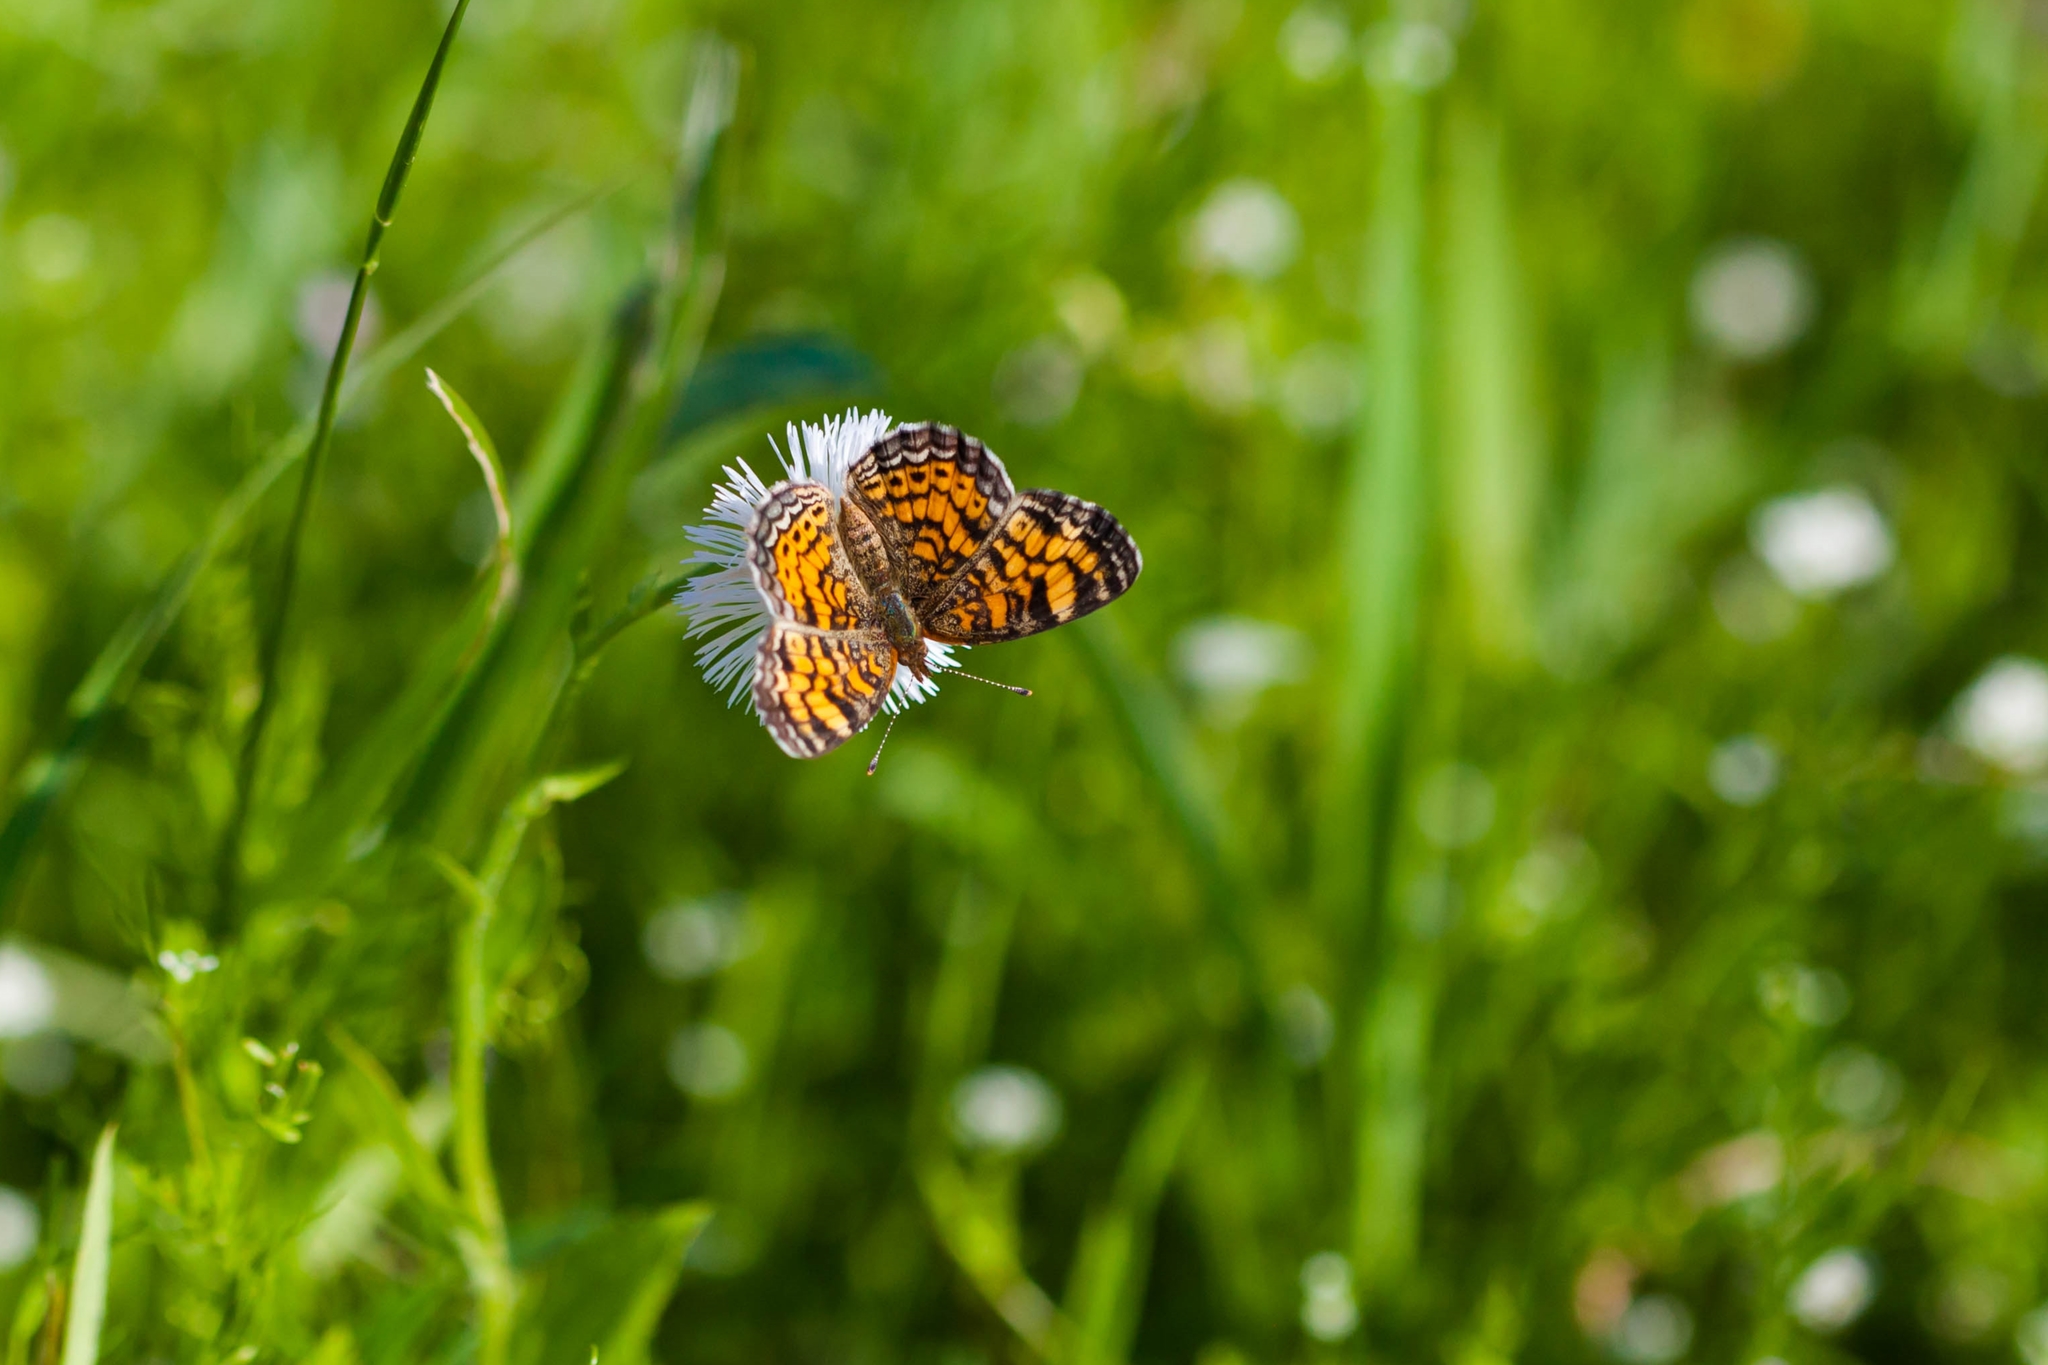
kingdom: Animalia
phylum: Arthropoda
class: Insecta
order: Lepidoptera
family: Nymphalidae
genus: Phyciodes
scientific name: Phyciodes tharos
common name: Pearl crescent
